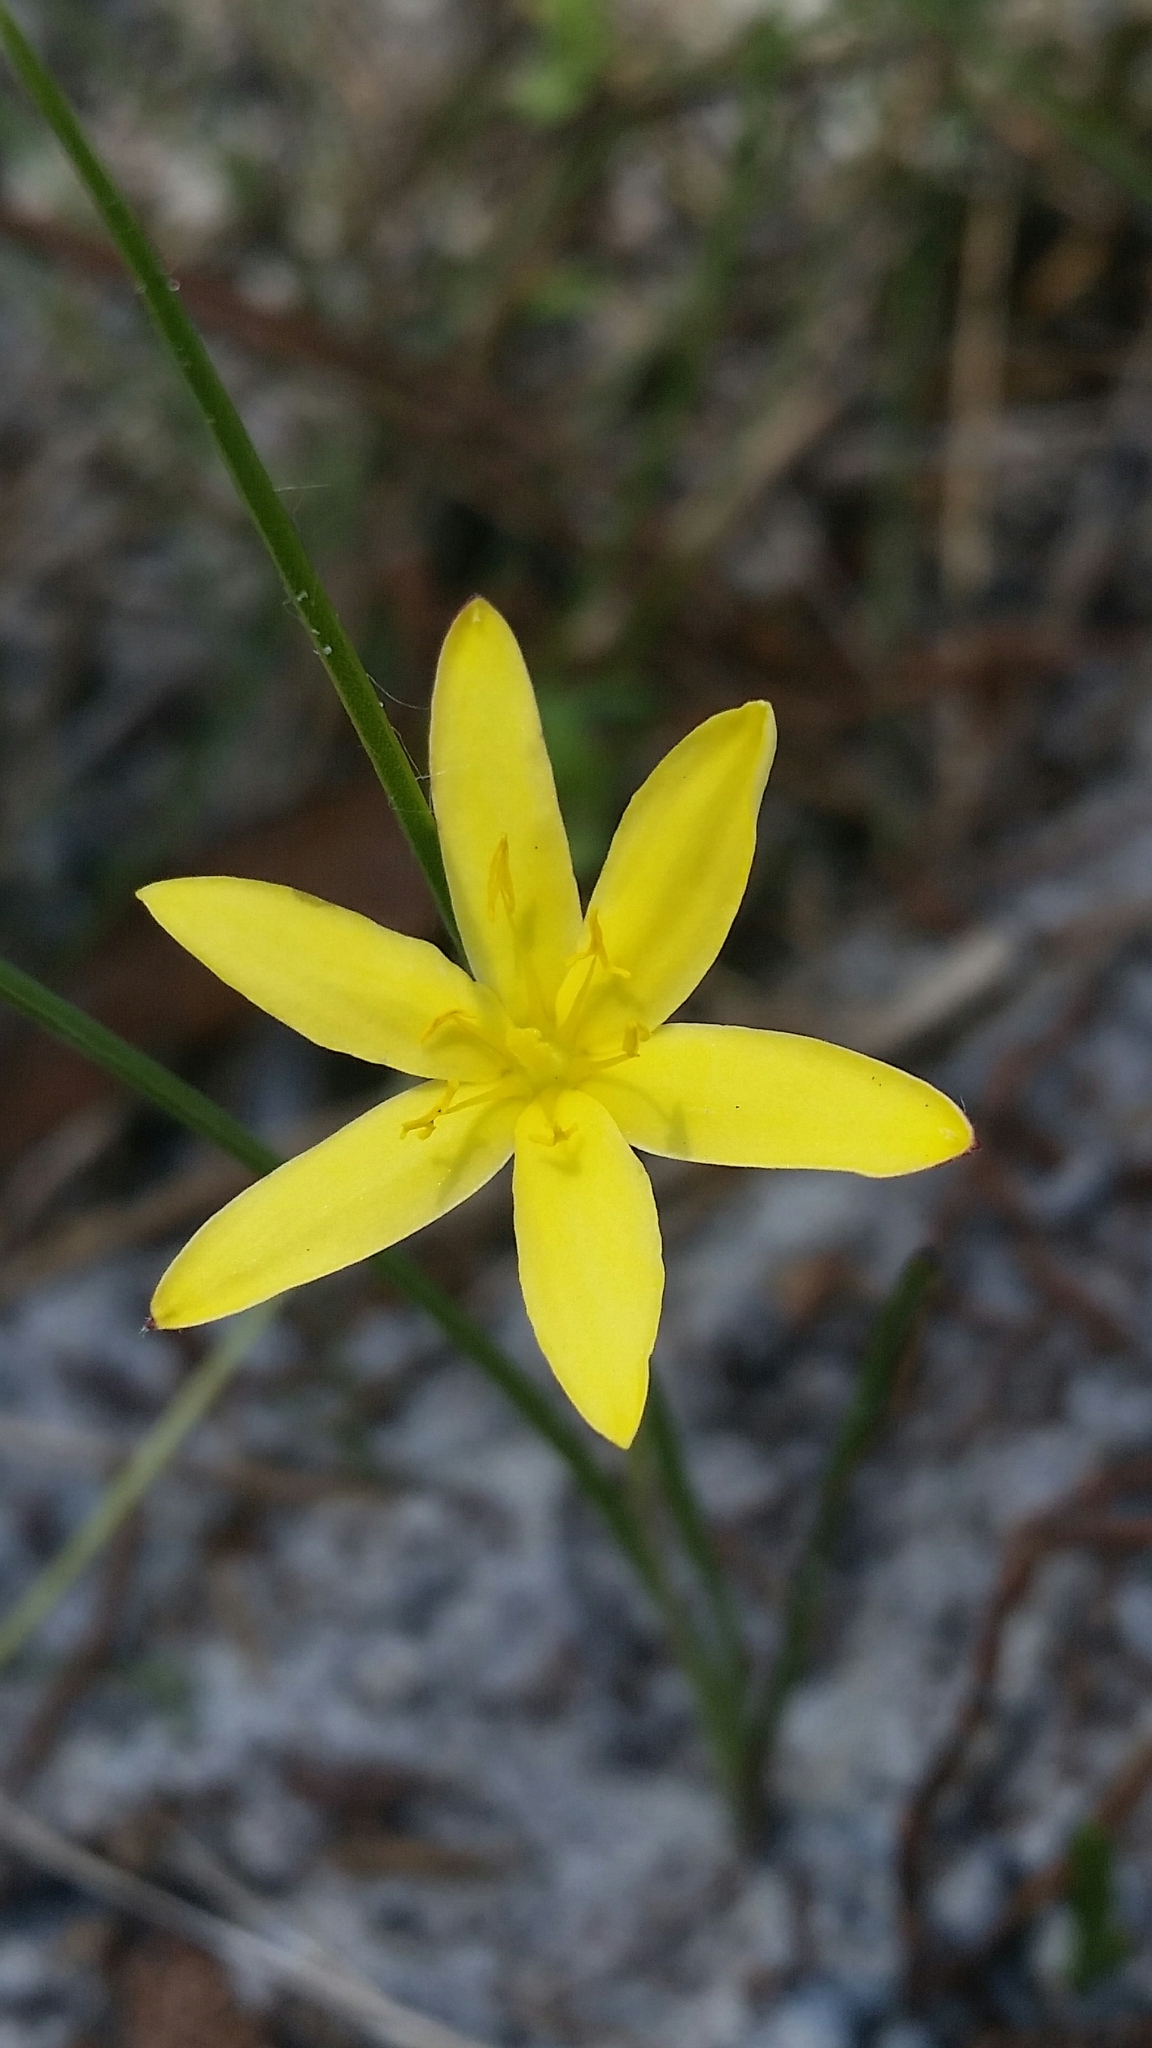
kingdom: Plantae
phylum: Tracheophyta
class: Liliopsida
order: Asparagales
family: Hypoxidaceae
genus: Hypoxis
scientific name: Hypoxis juncea
